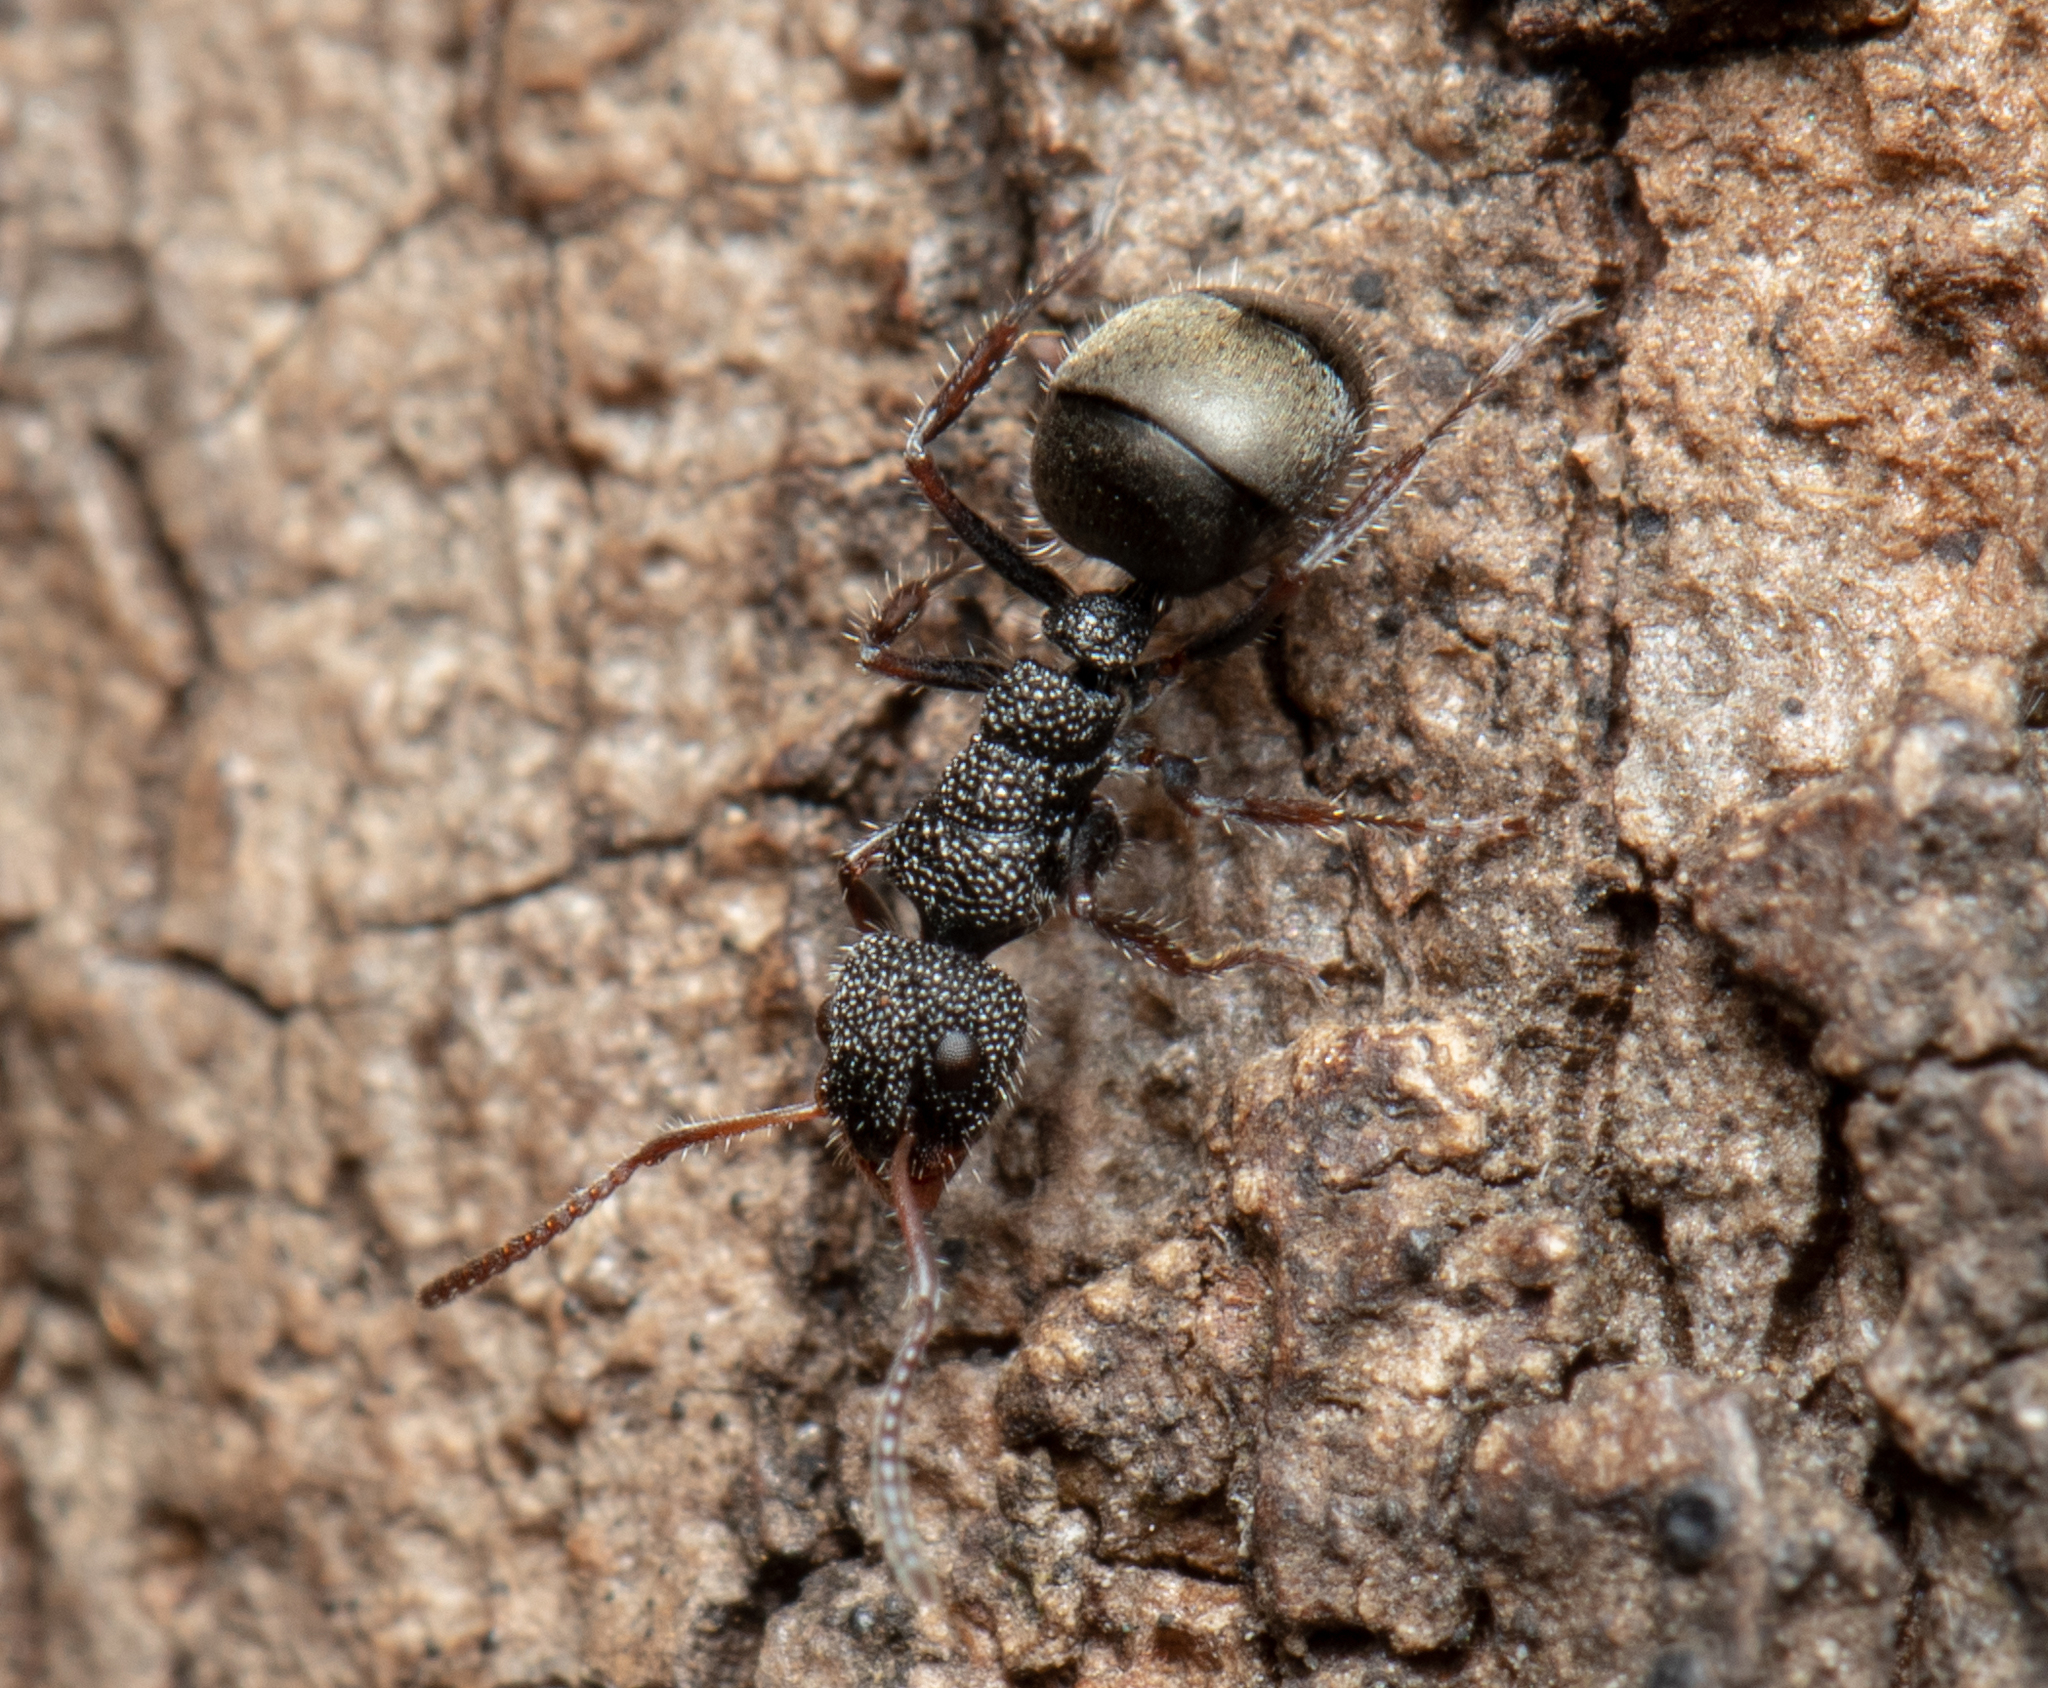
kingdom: Animalia
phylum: Arthropoda
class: Insecta
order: Hymenoptera
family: Formicidae
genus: Dolichoderus
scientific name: Dolichoderus scrobiculatus
